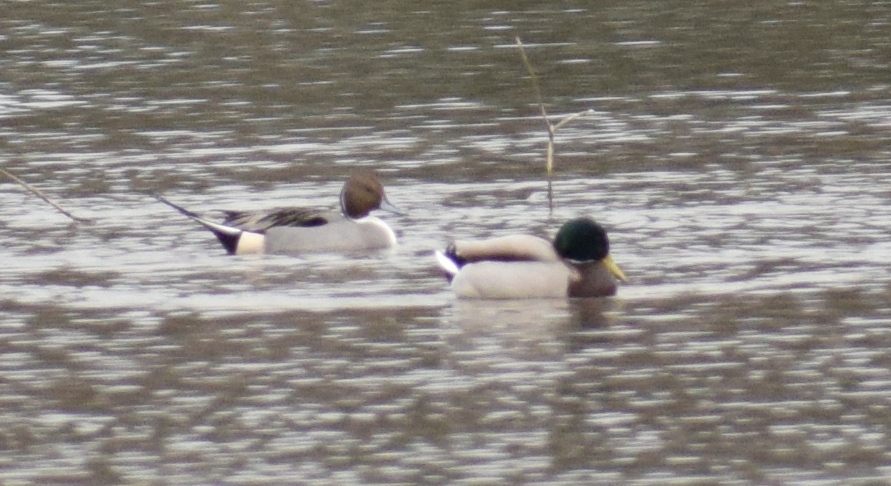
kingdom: Animalia
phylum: Chordata
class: Aves
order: Anseriformes
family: Anatidae
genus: Anas
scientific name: Anas platyrhynchos
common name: Mallard
